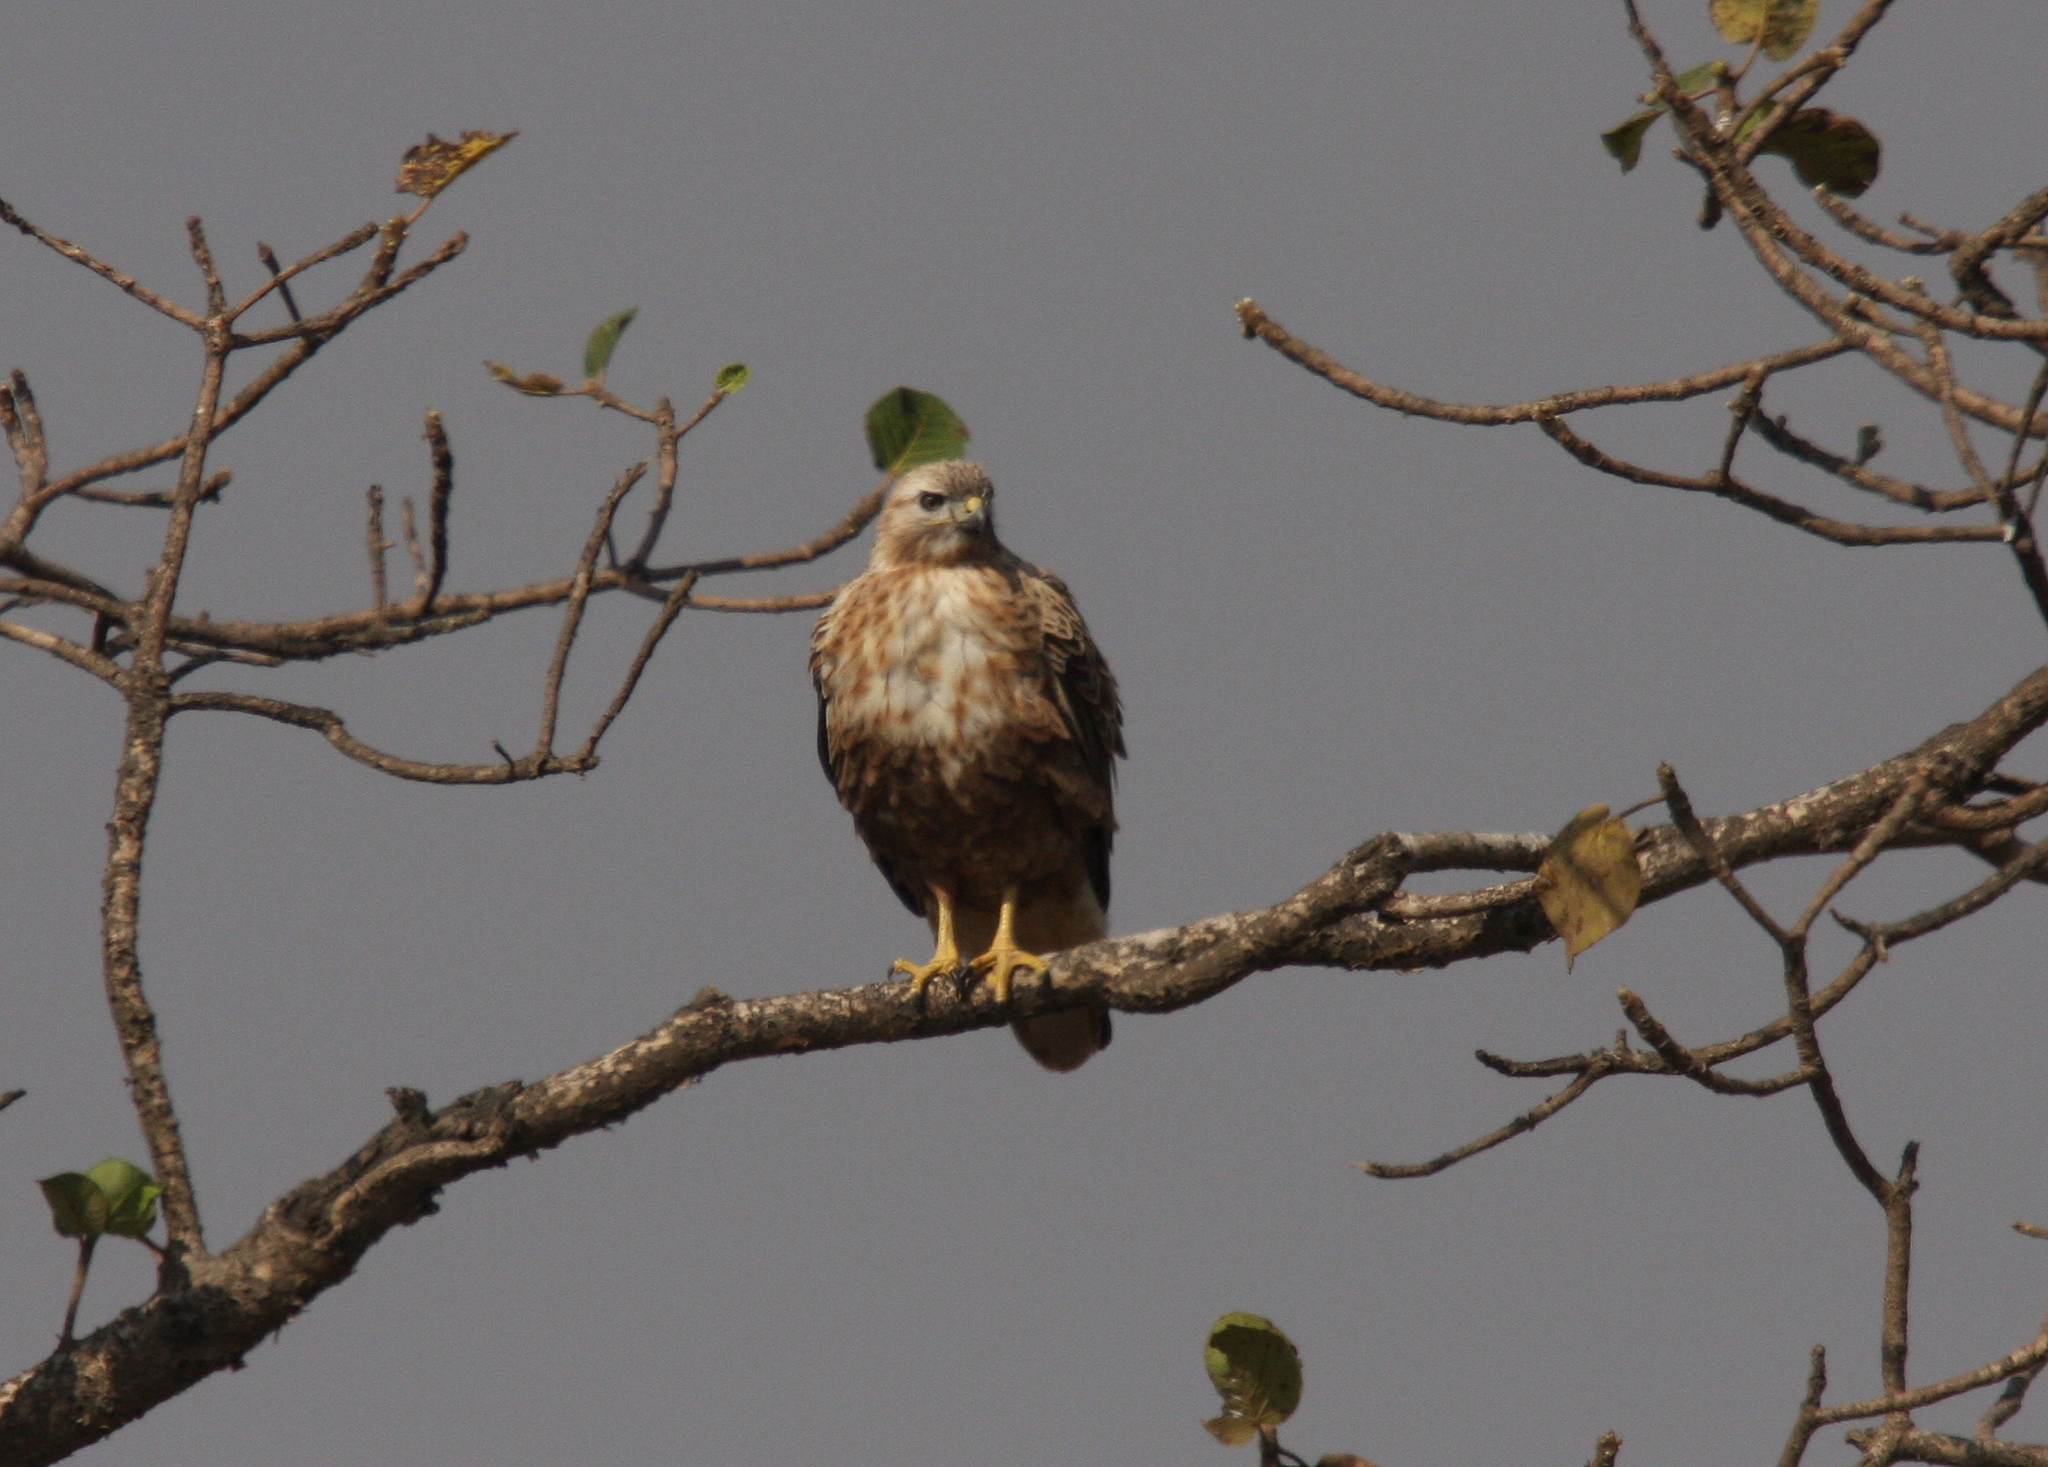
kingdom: Animalia
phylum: Chordata
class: Aves
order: Accipitriformes
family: Accipitridae
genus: Buteo
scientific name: Buteo rufinus
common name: Long-legged buzzard
